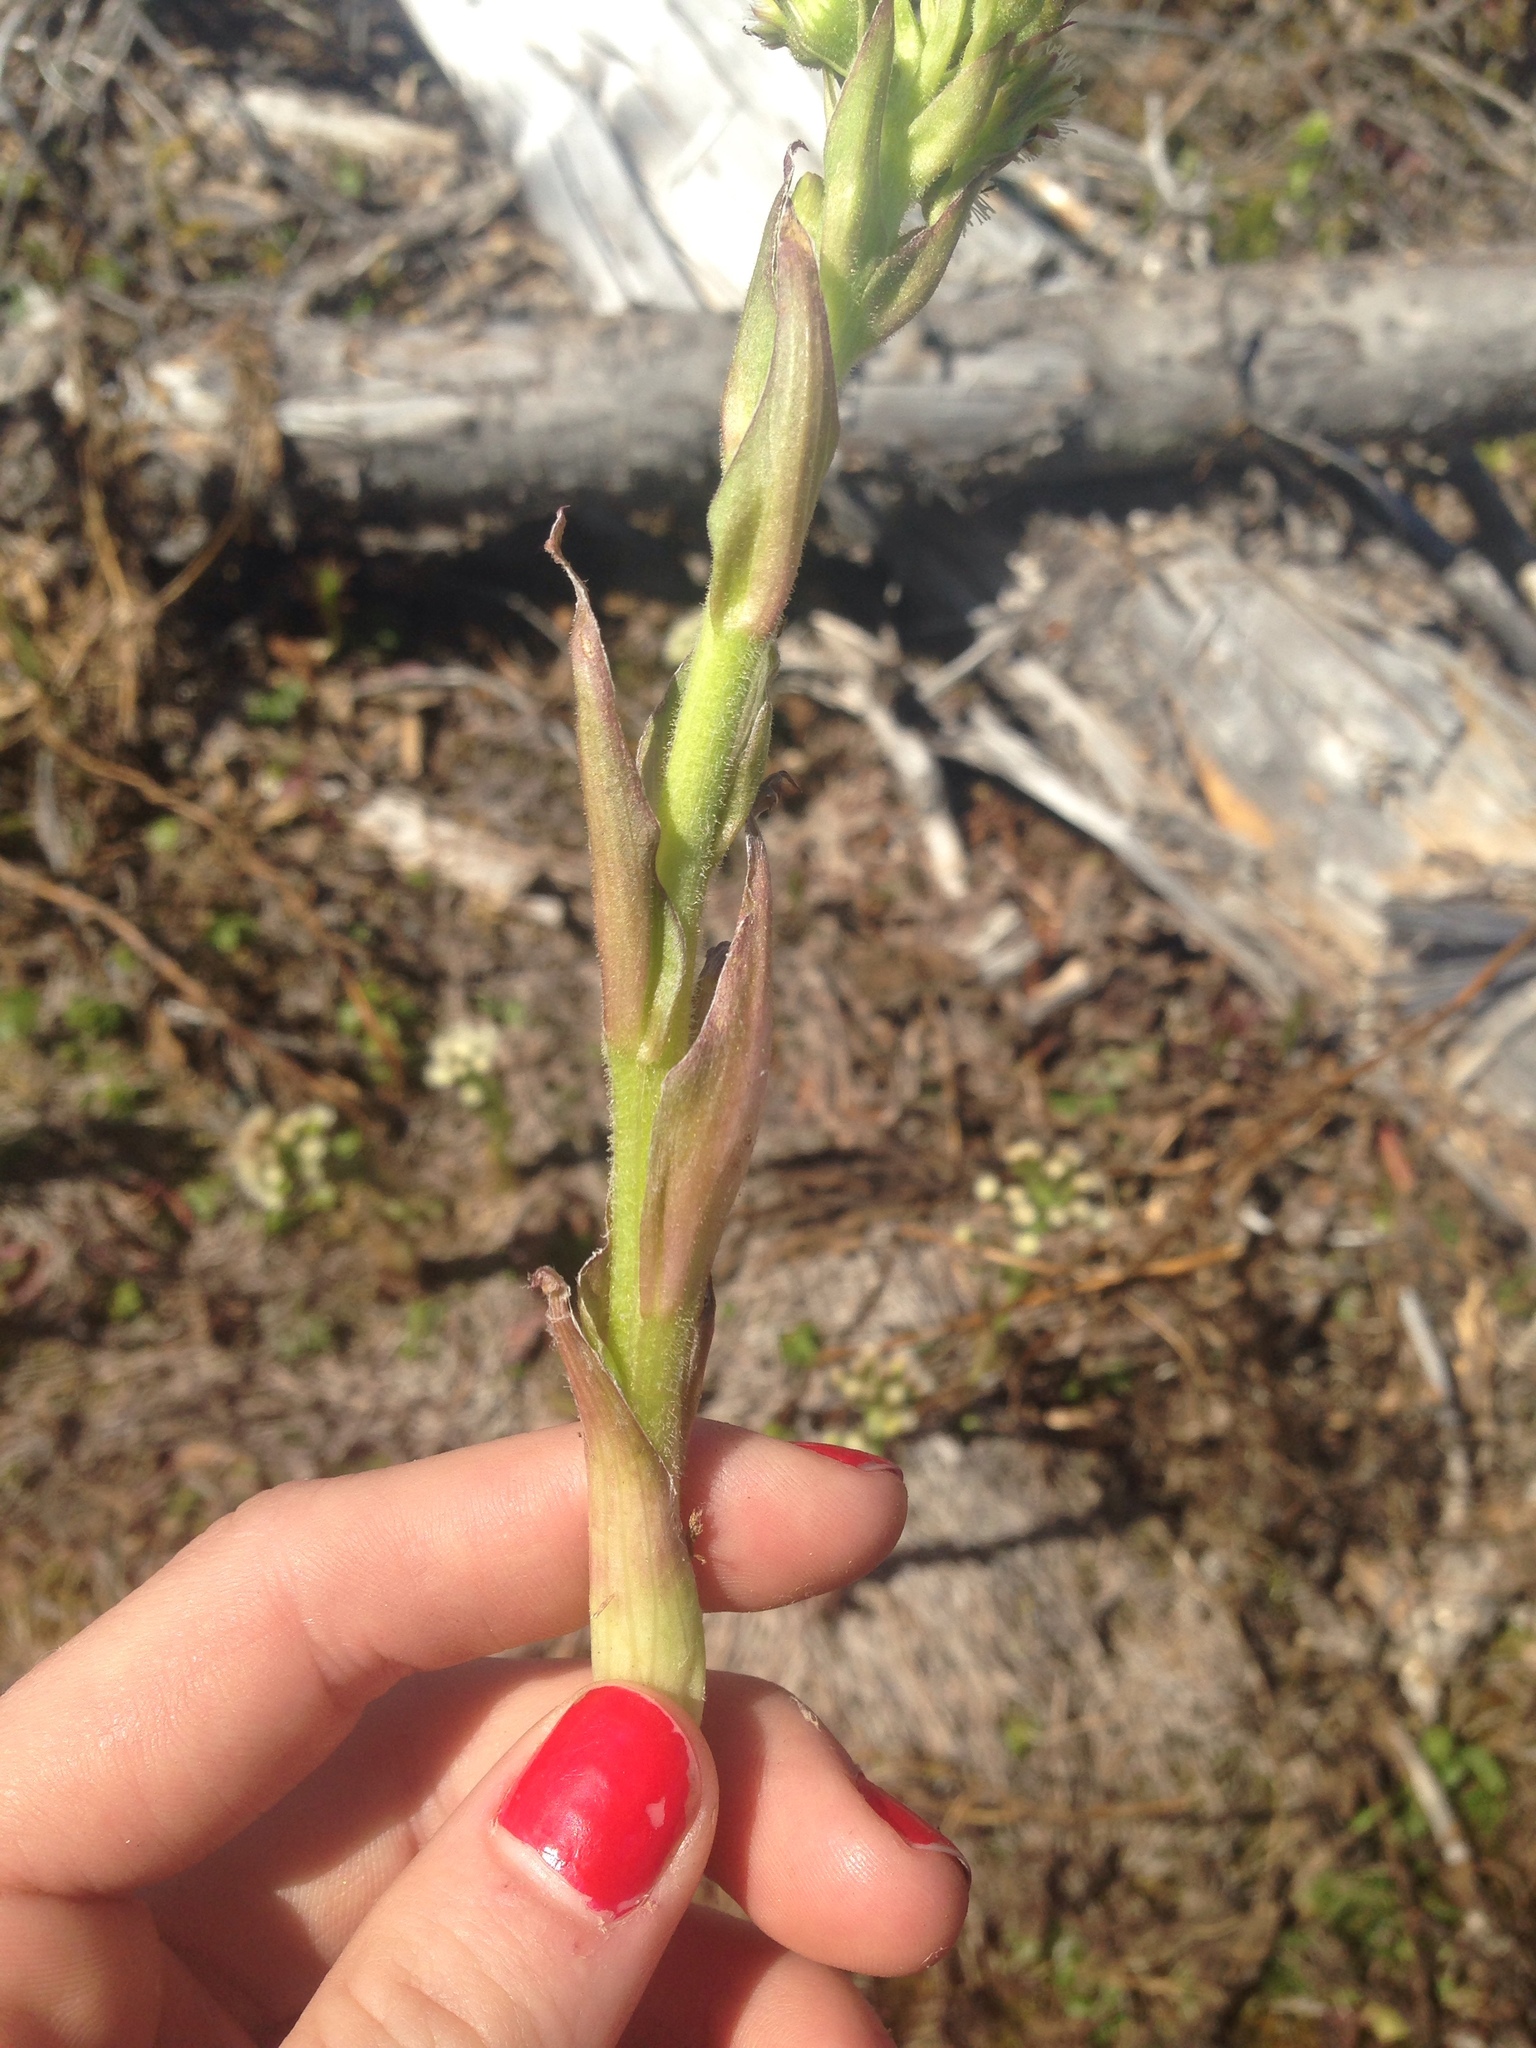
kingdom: Plantae
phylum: Tracheophyta
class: Magnoliopsida
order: Asterales
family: Asteraceae
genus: Petasites
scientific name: Petasites frigidus
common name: Arctic butterbur
